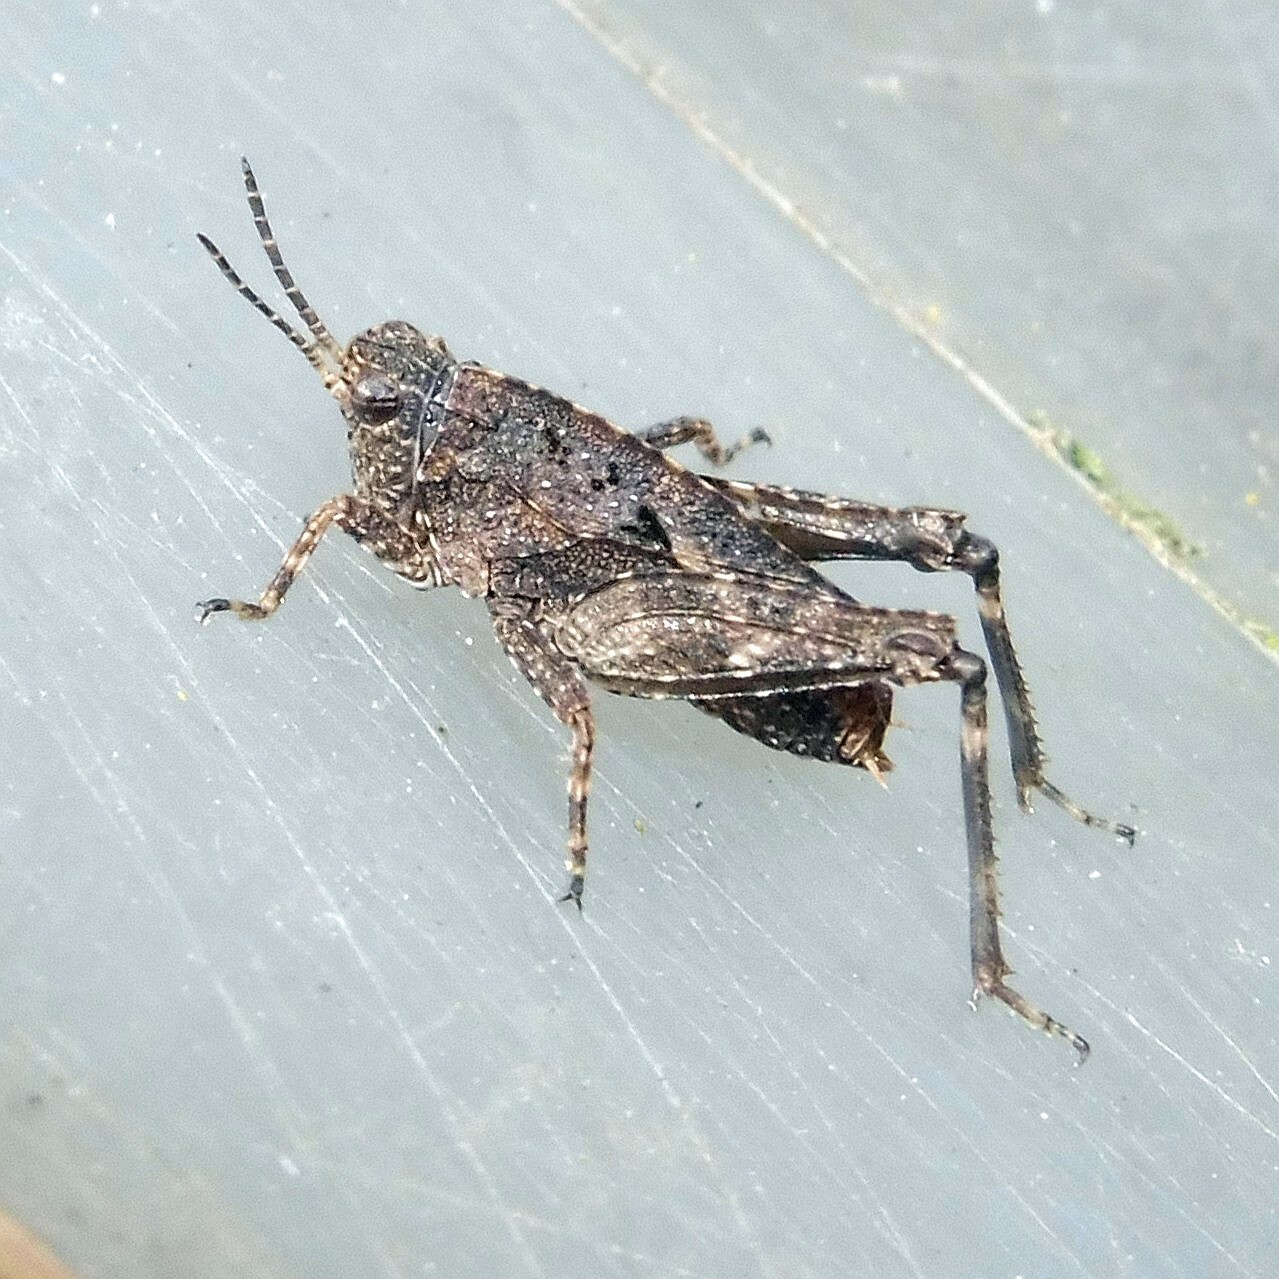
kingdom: Animalia
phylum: Arthropoda
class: Insecta
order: Orthoptera
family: Tetrigidae
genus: Tetrix
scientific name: Tetrix undulata
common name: Common groundhopper
